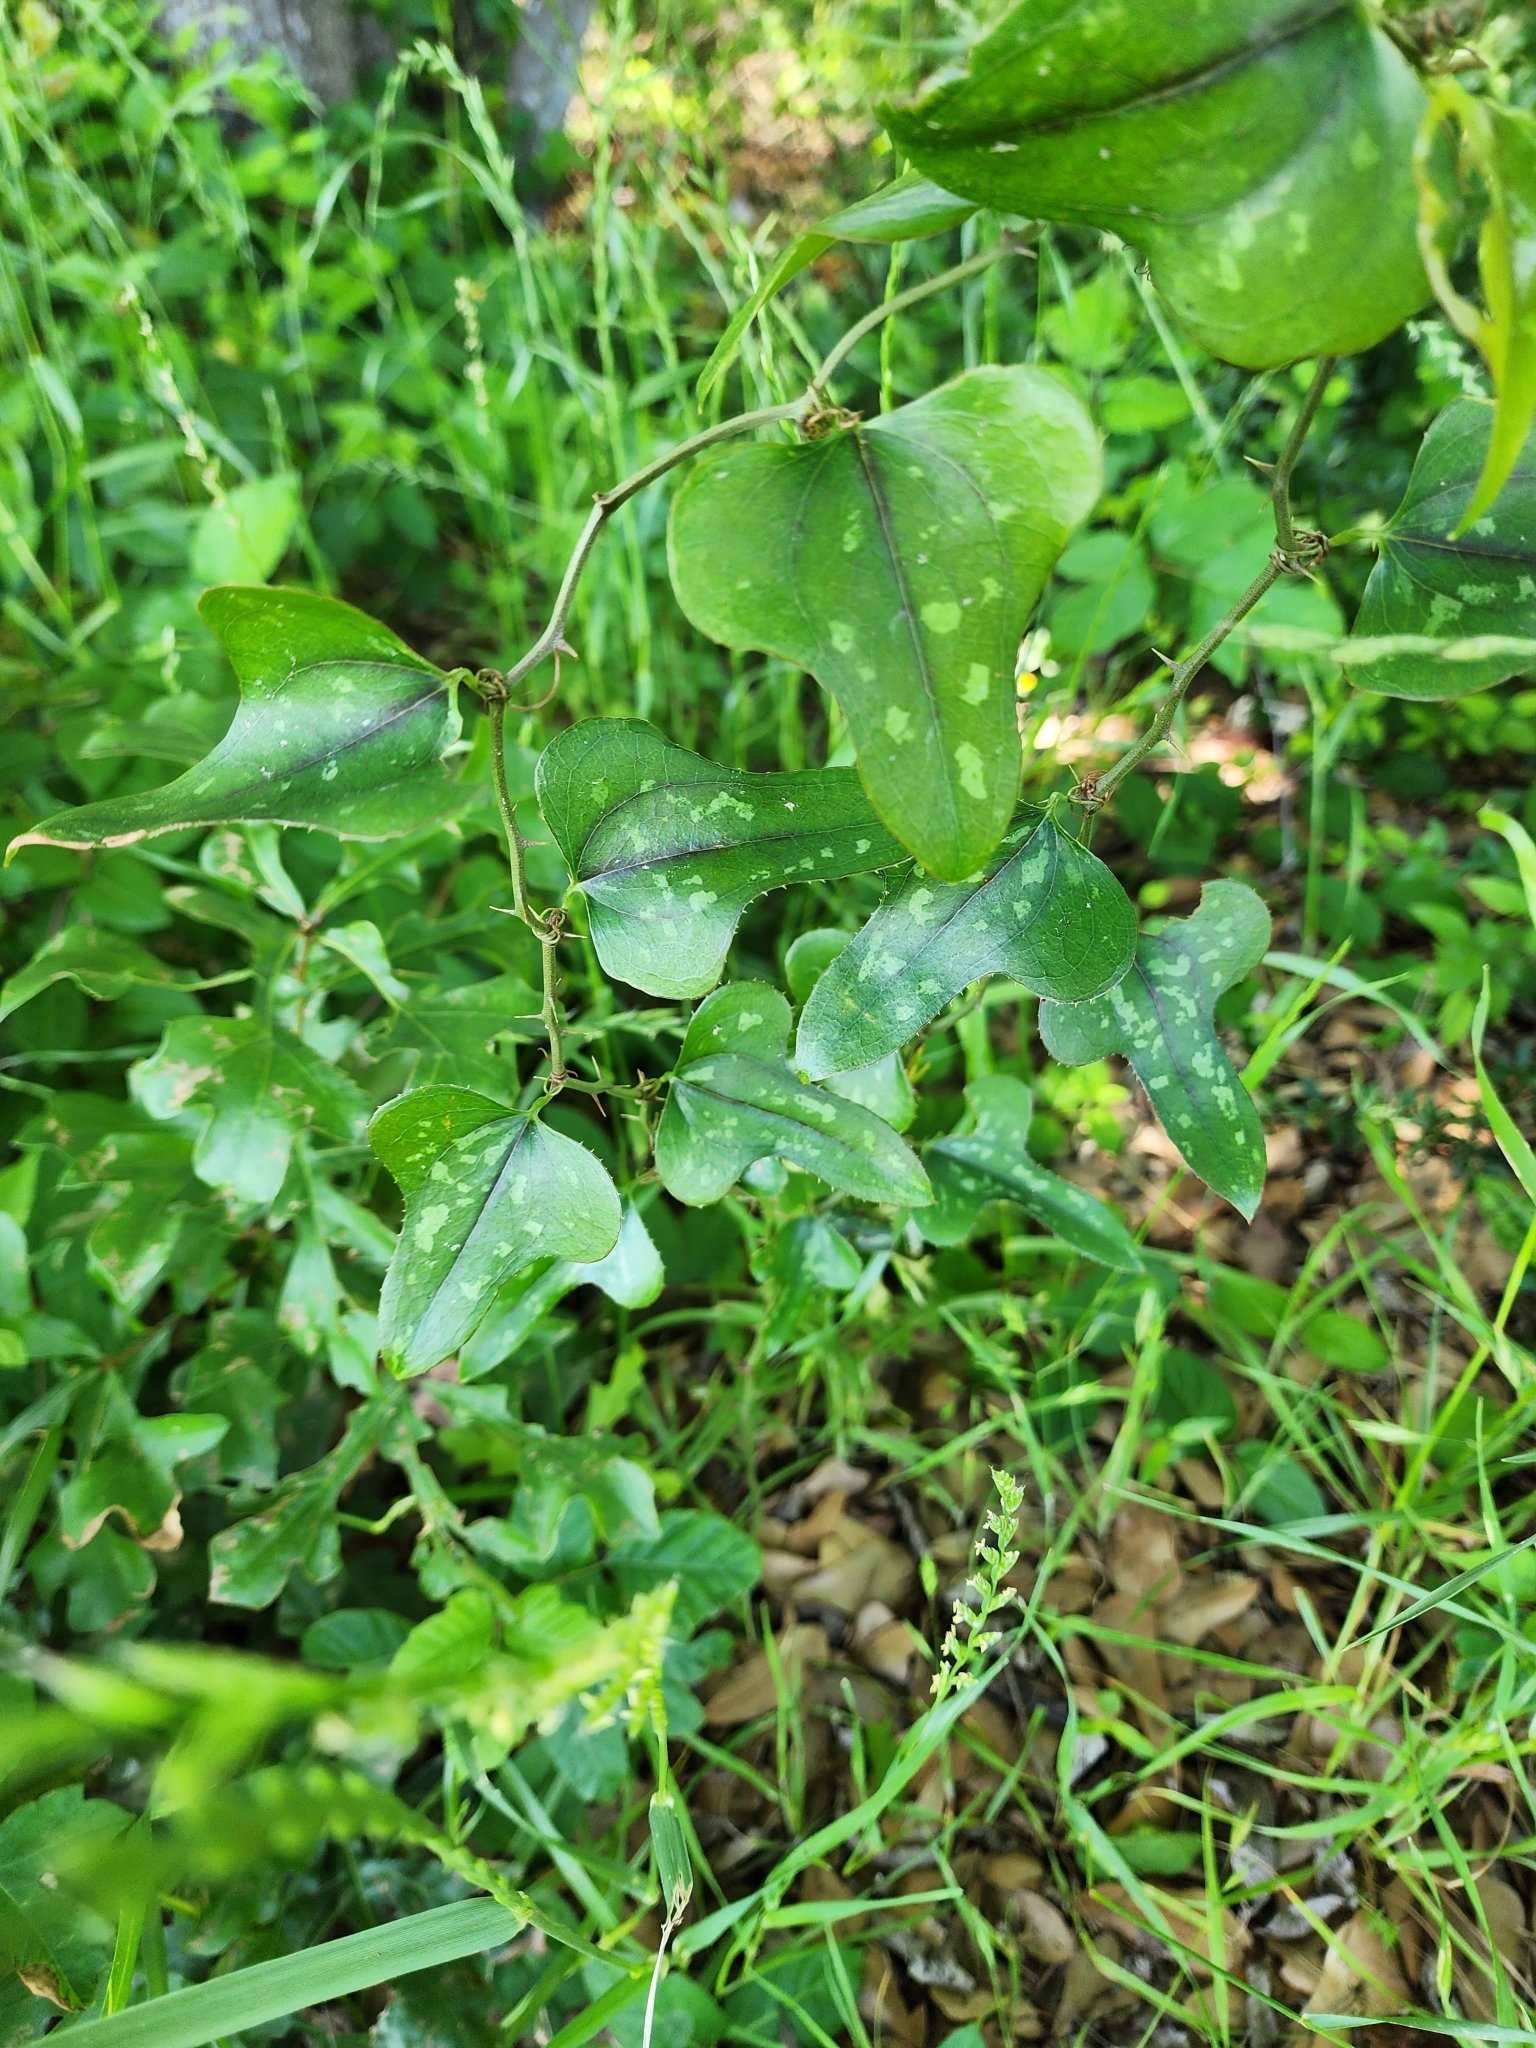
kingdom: Plantae
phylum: Tracheophyta
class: Liliopsida
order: Liliales
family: Smilacaceae
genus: Smilax
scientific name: Smilax bona-nox
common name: Catbrier
